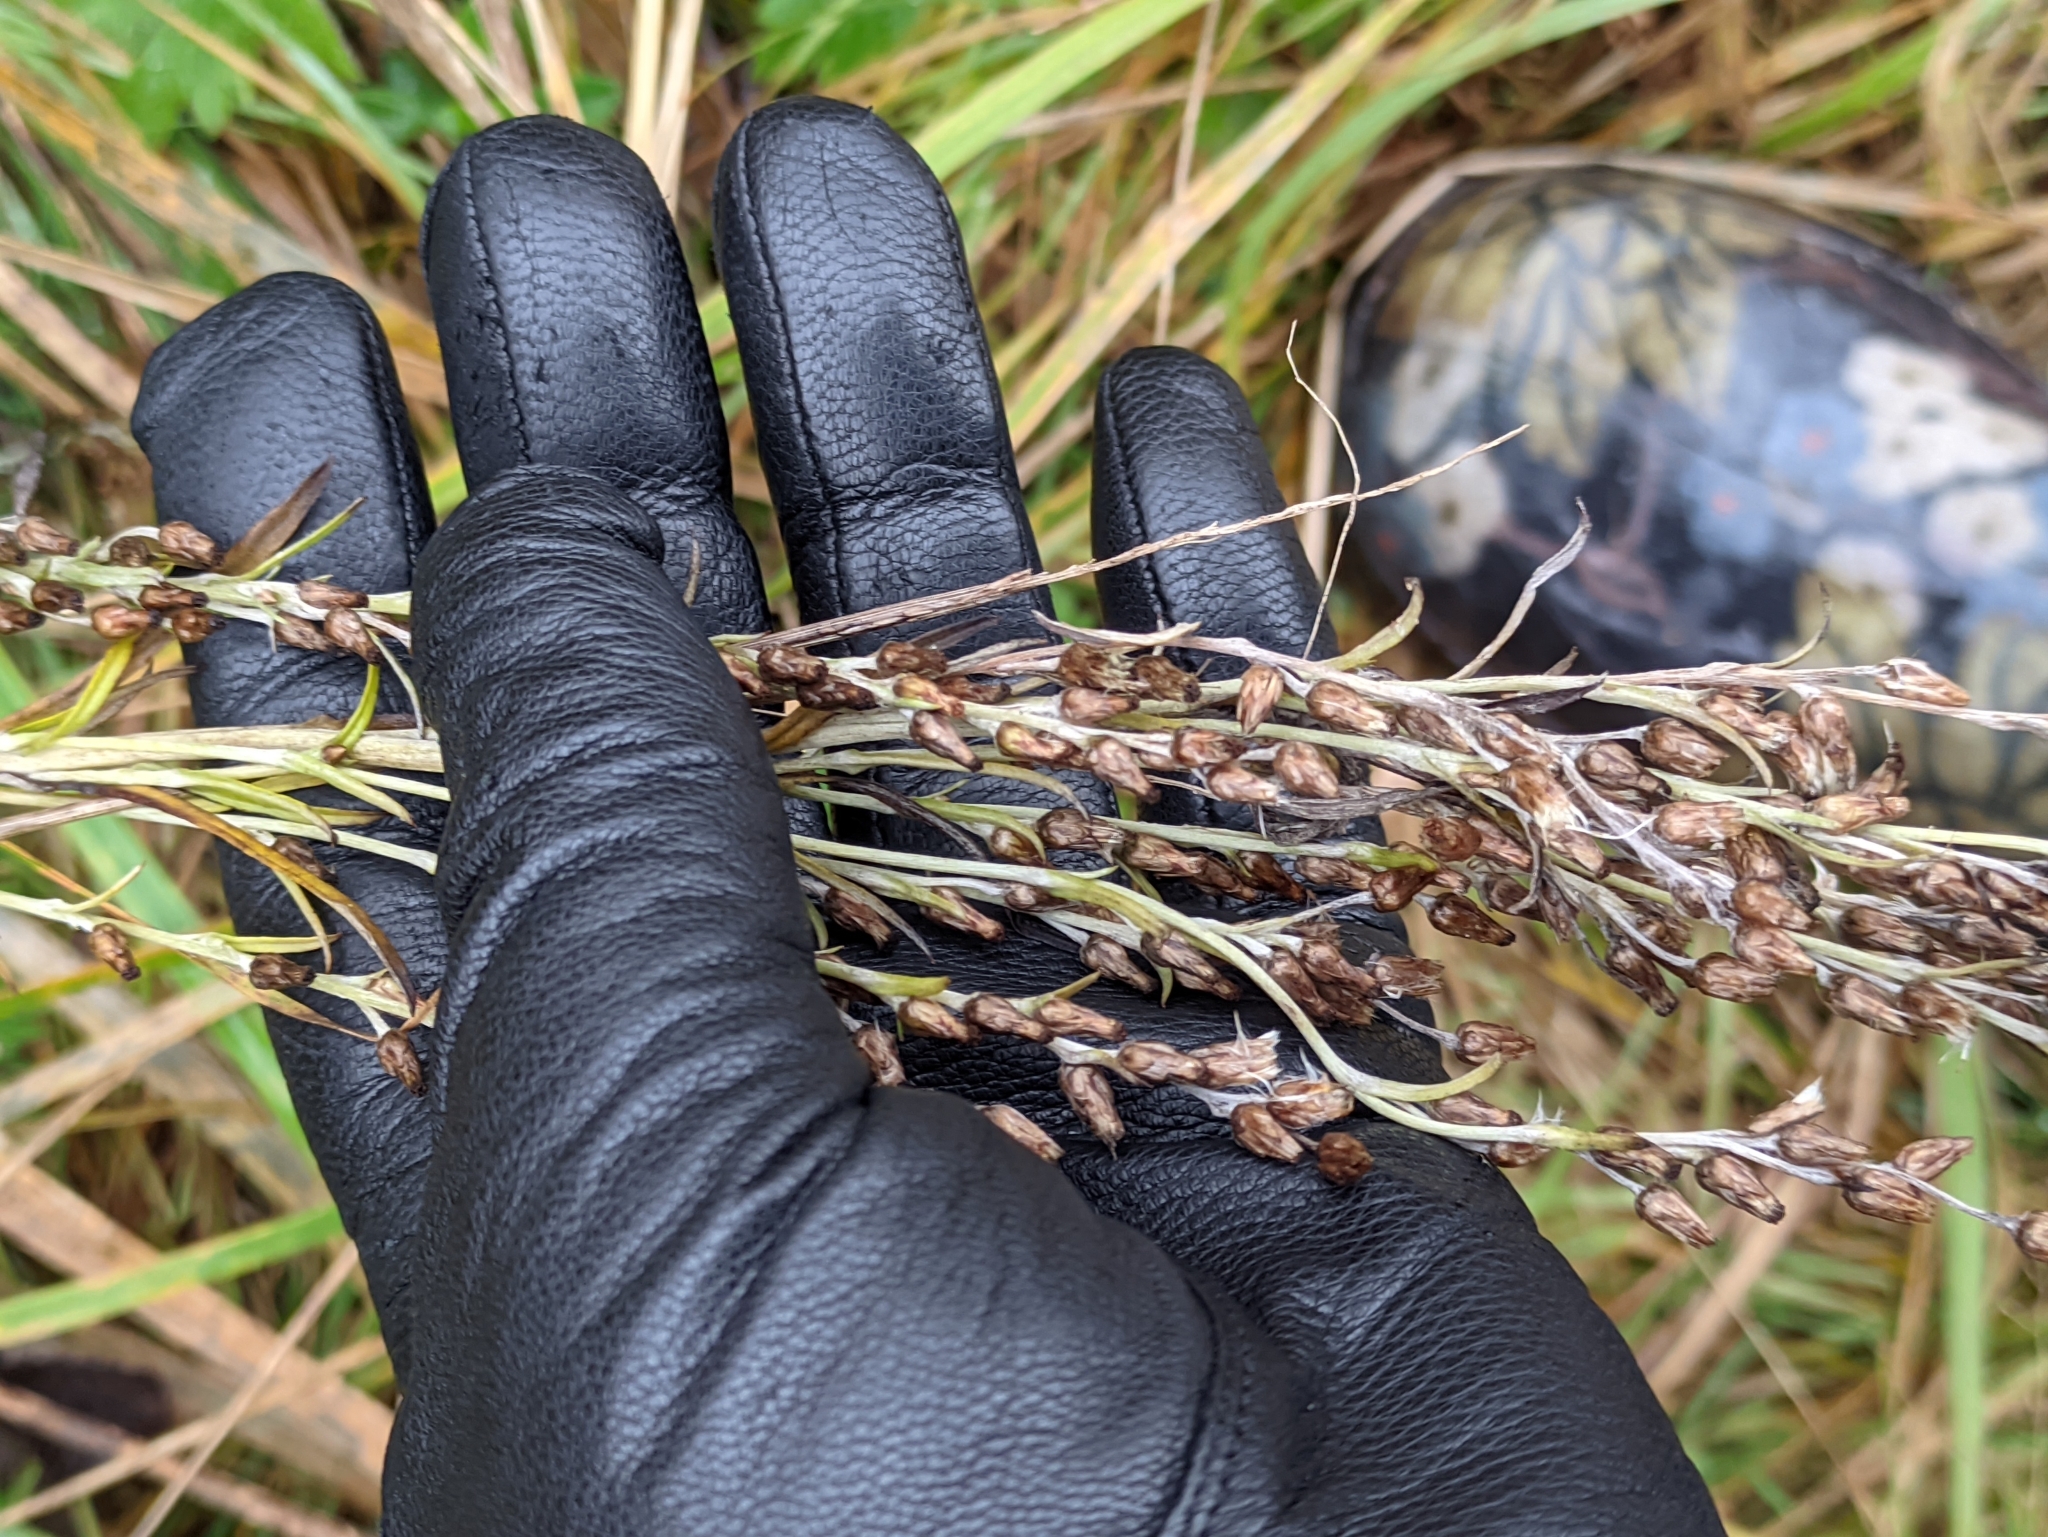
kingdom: Plantae
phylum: Tracheophyta
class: Magnoliopsida
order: Asterales
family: Asteraceae
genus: Omalotheca
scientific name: Omalotheca sylvatica
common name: Heath cudweed
